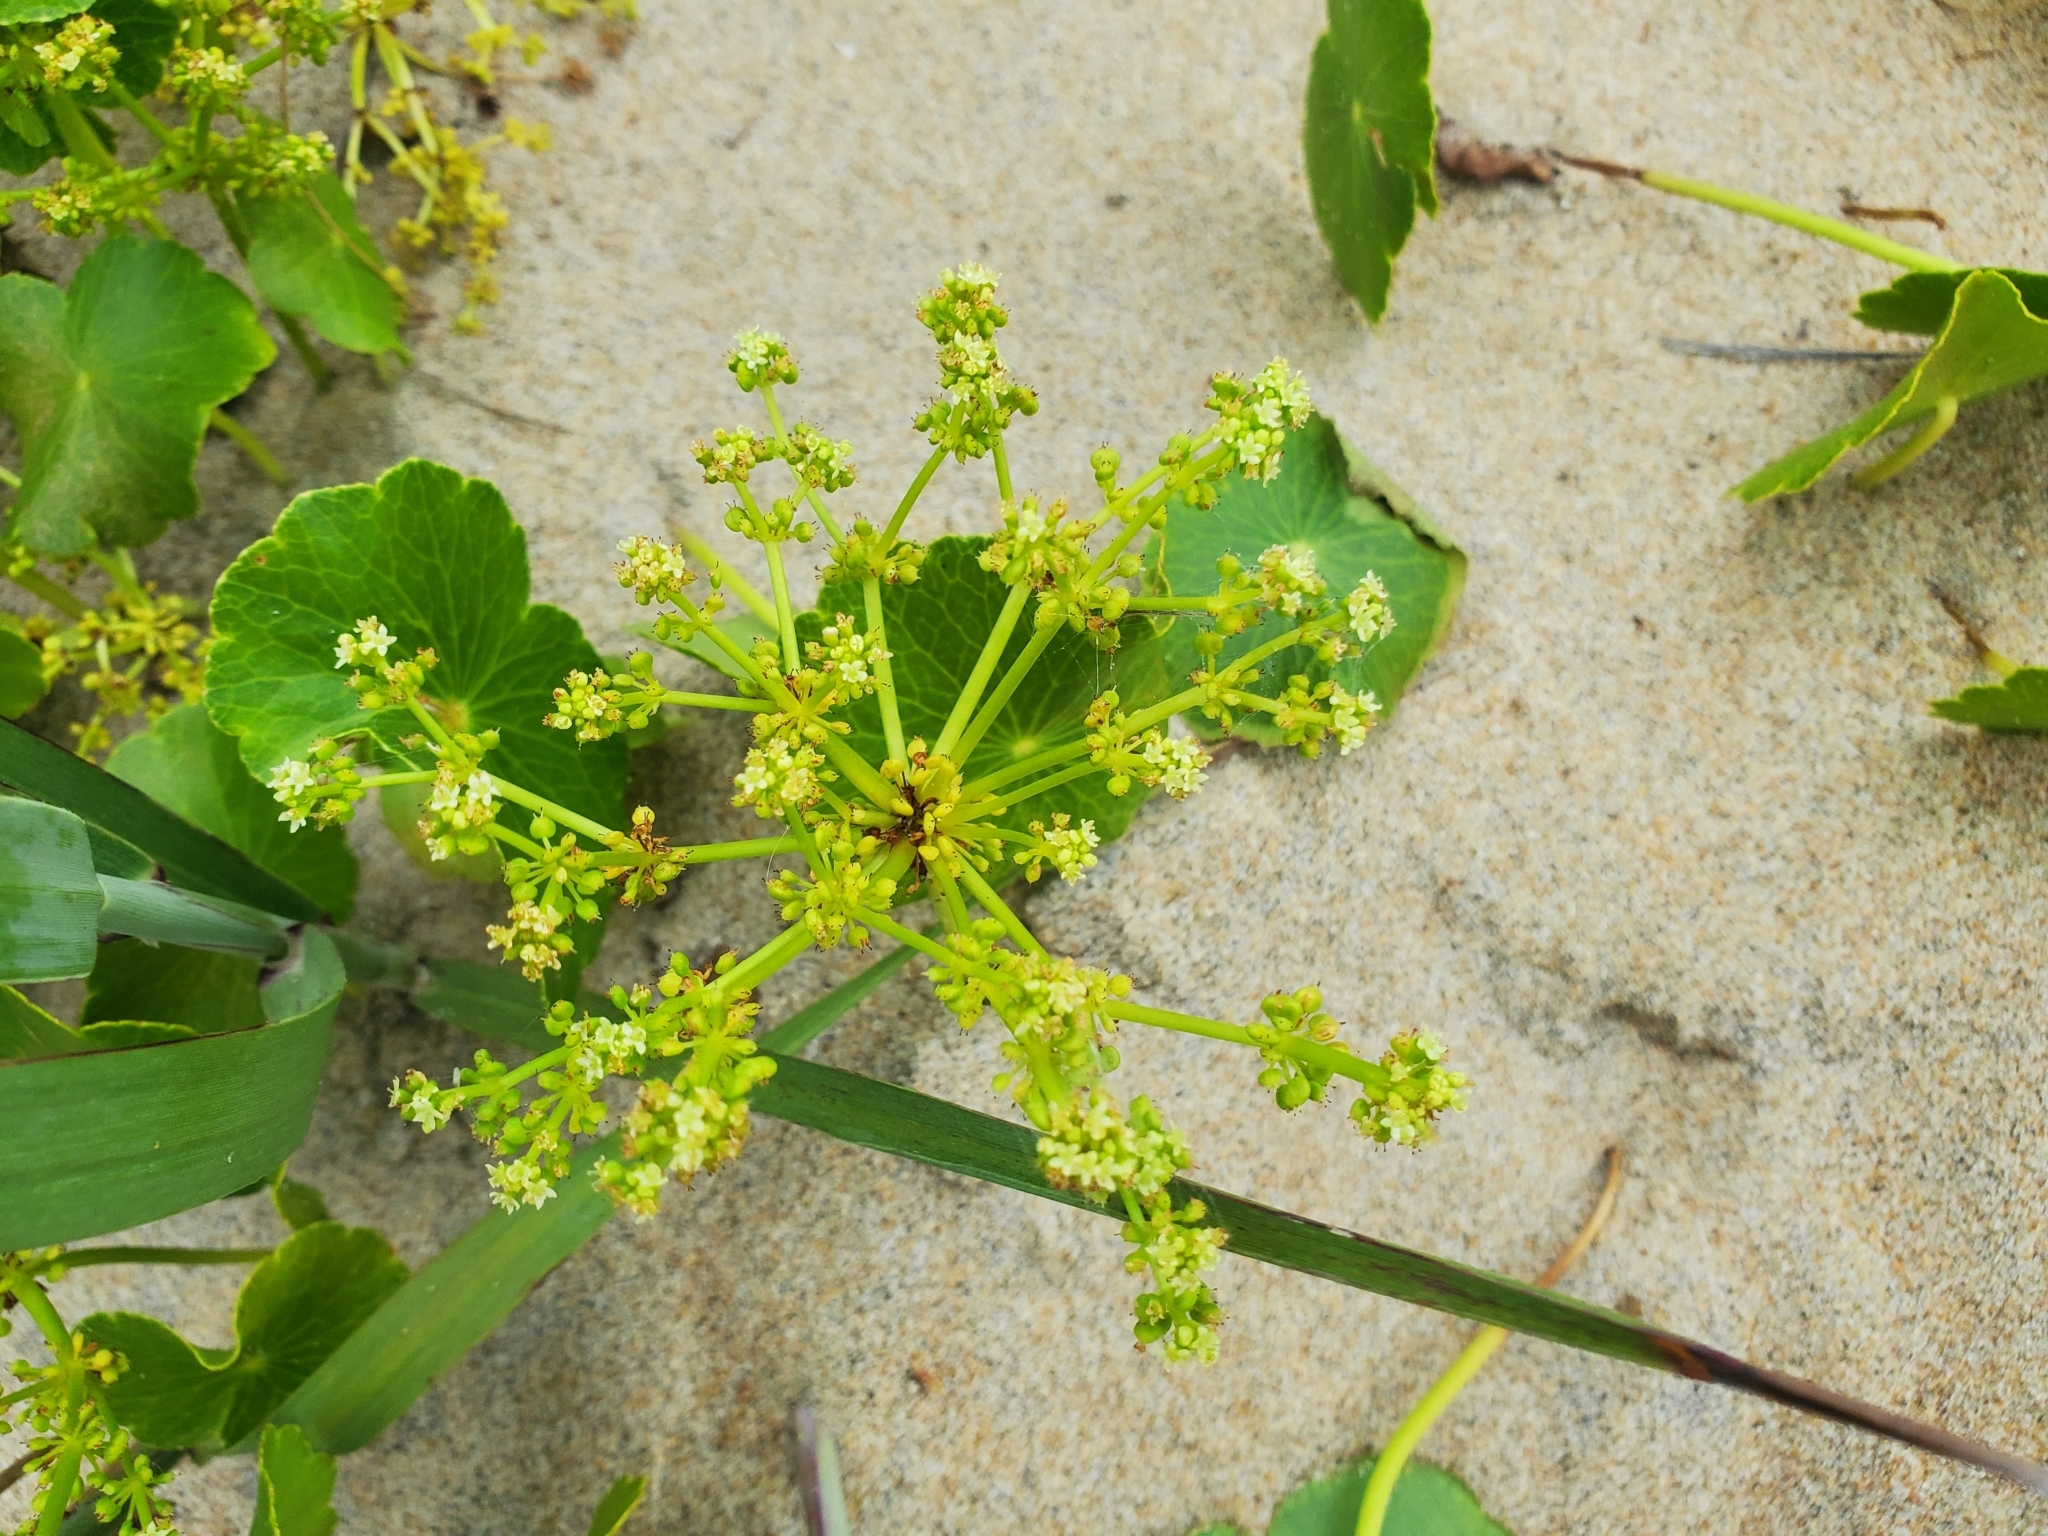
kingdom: Plantae
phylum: Tracheophyta
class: Magnoliopsida
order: Apiales
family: Araliaceae
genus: Hydrocotyle
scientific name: Hydrocotyle bonariensis
